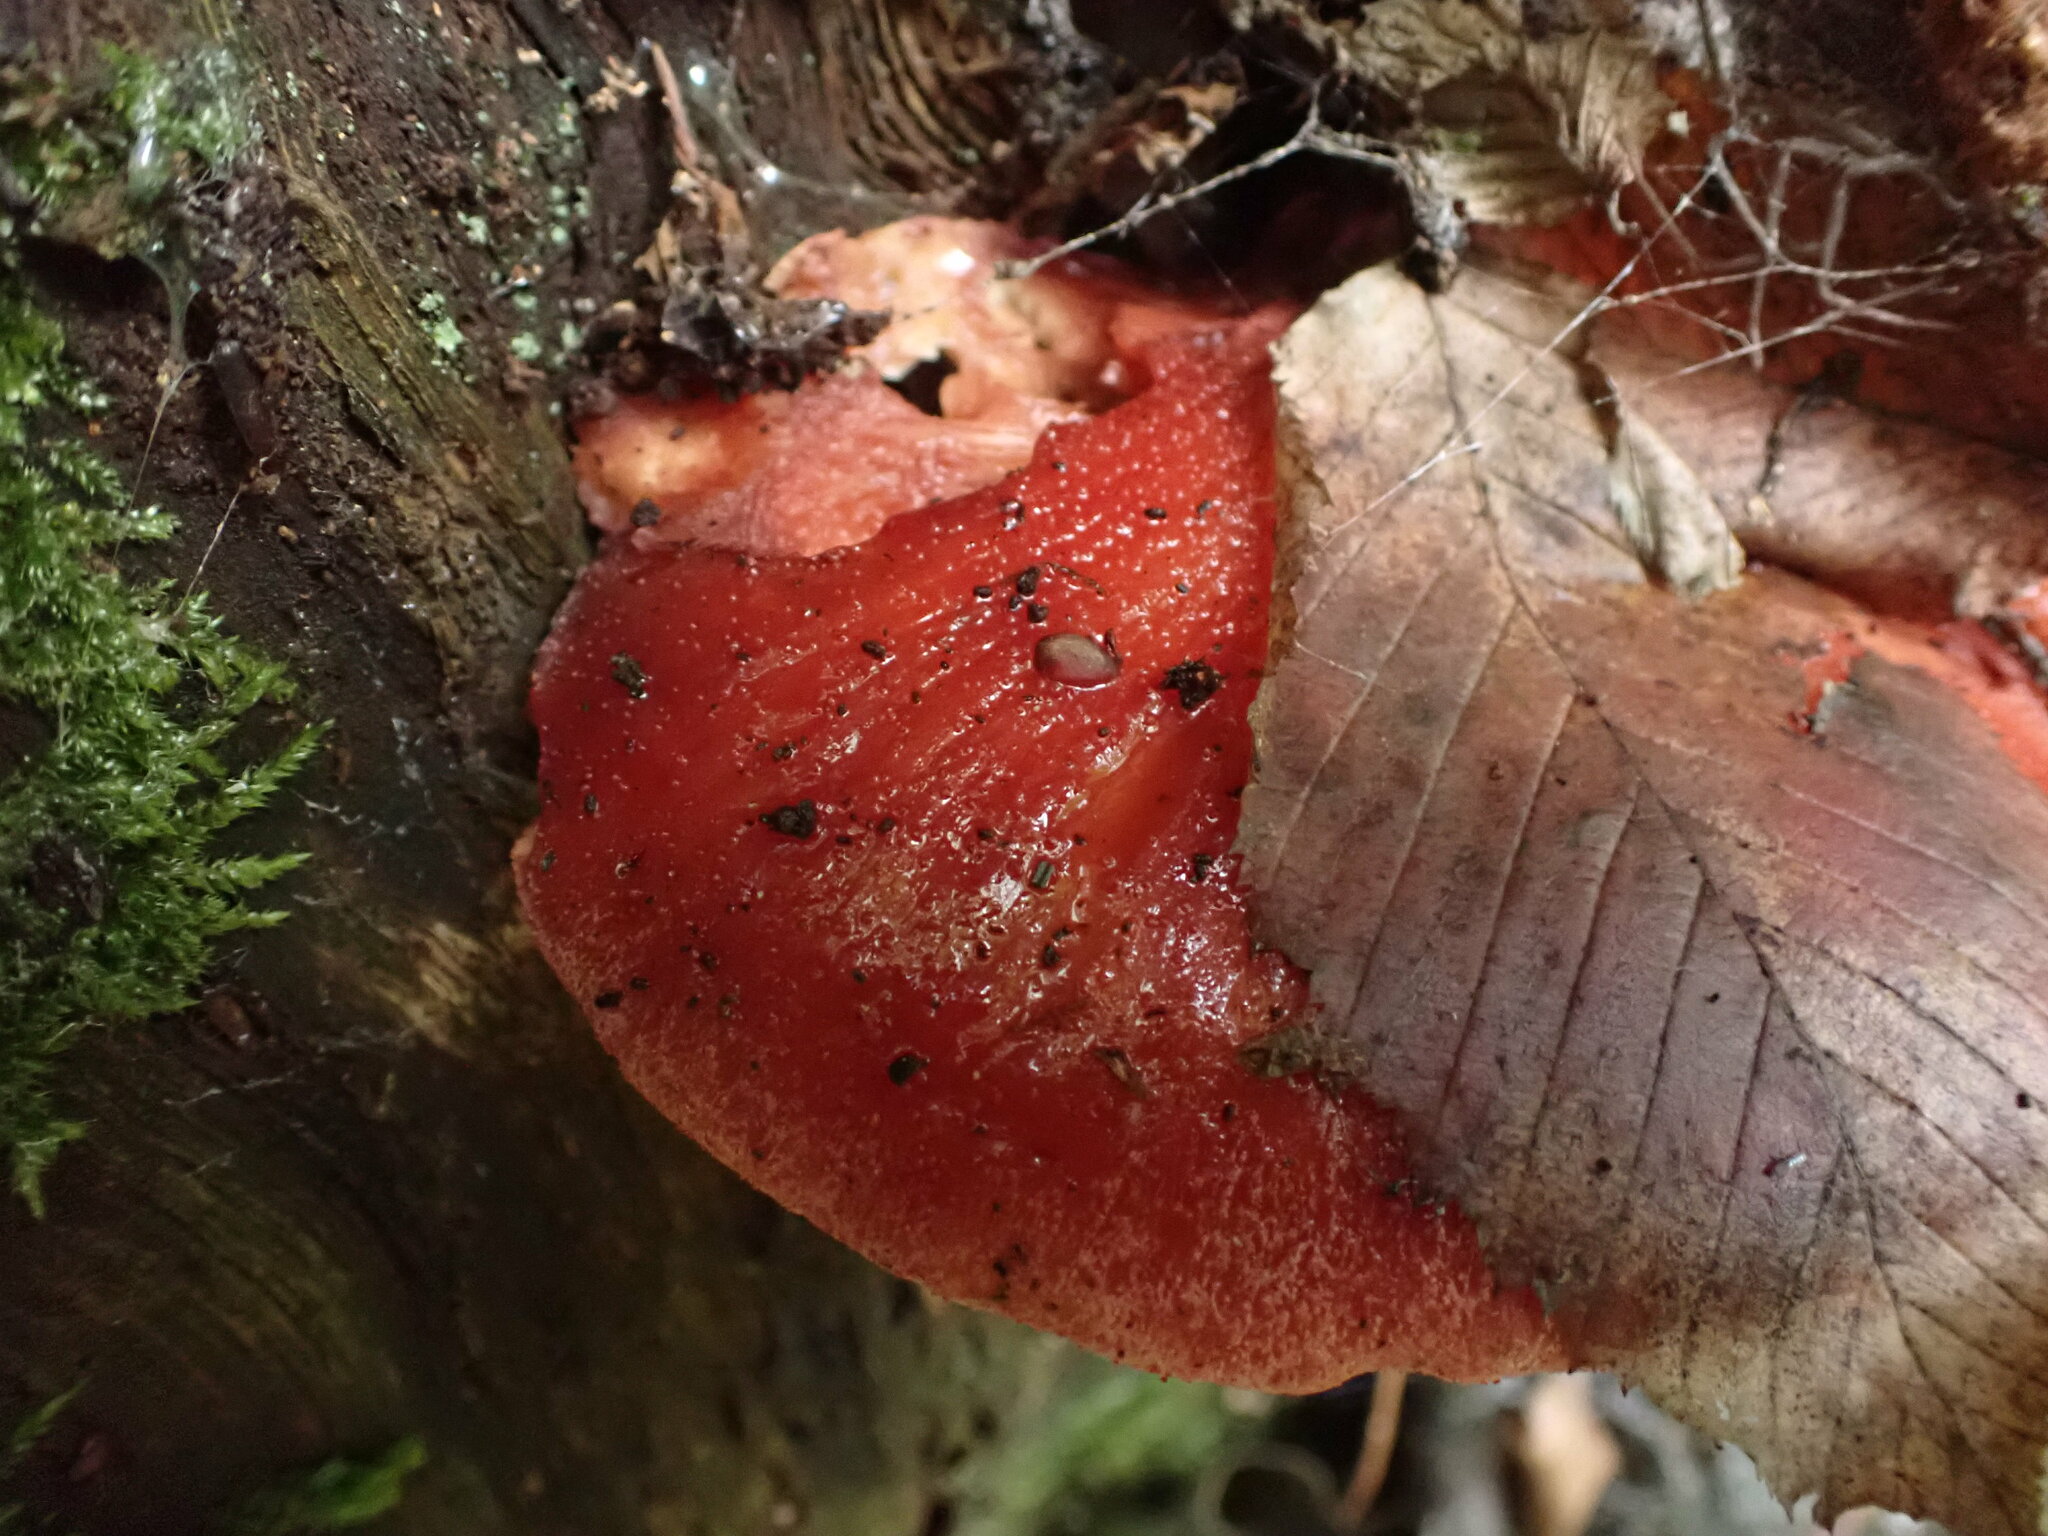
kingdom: Fungi
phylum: Basidiomycota
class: Agaricomycetes
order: Agaricales
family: Fistulinaceae
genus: Fistulina
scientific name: Fistulina hepatica
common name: Beef-steak fungus
